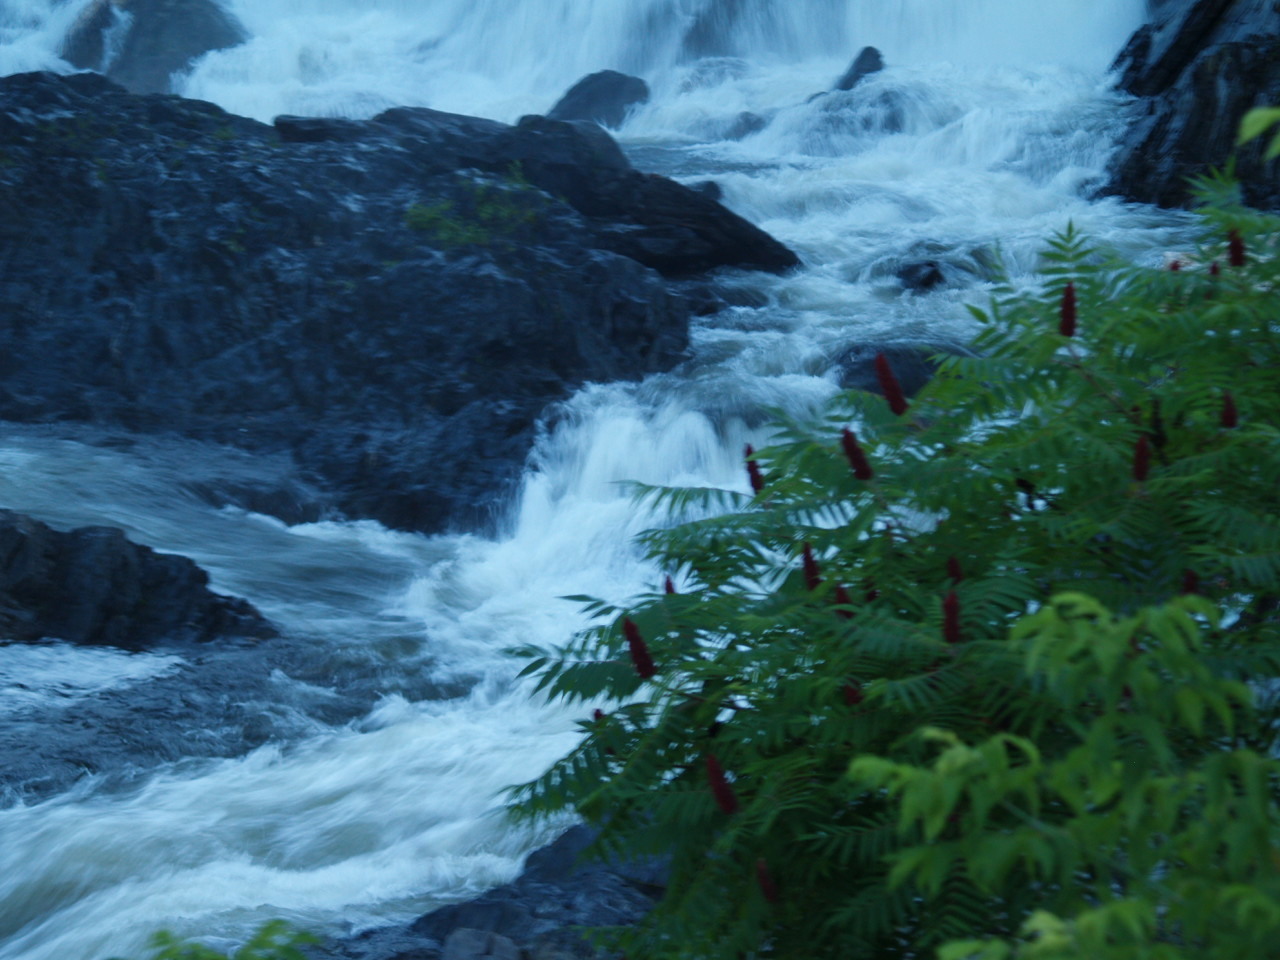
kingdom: Plantae
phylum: Tracheophyta
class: Magnoliopsida
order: Sapindales
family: Anacardiaceae
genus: Rhus
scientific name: Rhus typhina
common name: Staghorn sumac
